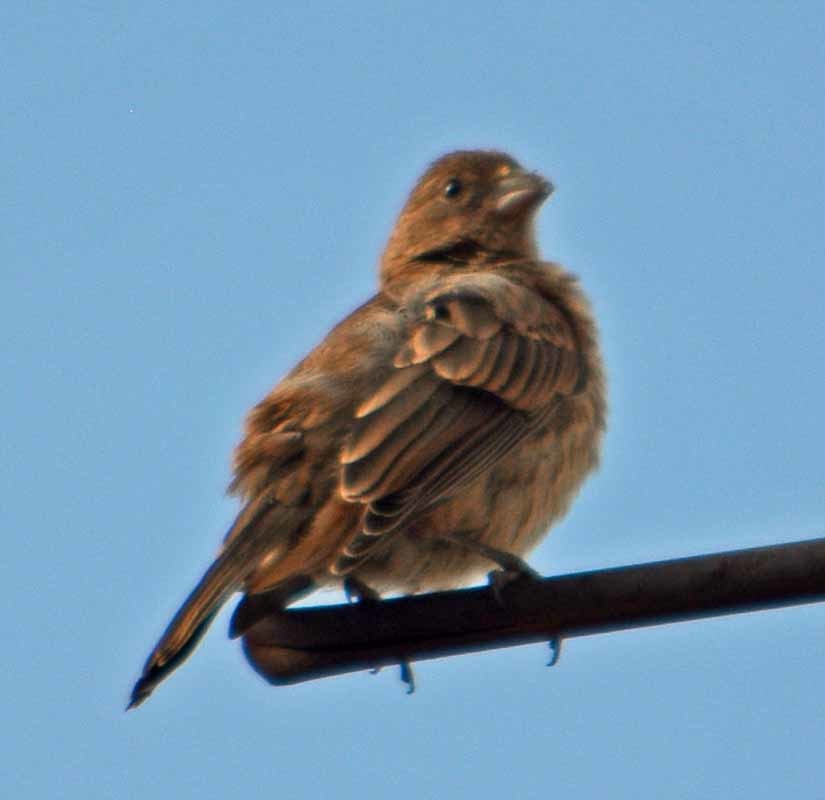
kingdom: Animalia
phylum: Chordata
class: Aves
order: Passeriformes
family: Fringillidae
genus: Haemorhous
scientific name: Haemorhous mexicanus
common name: House finch
